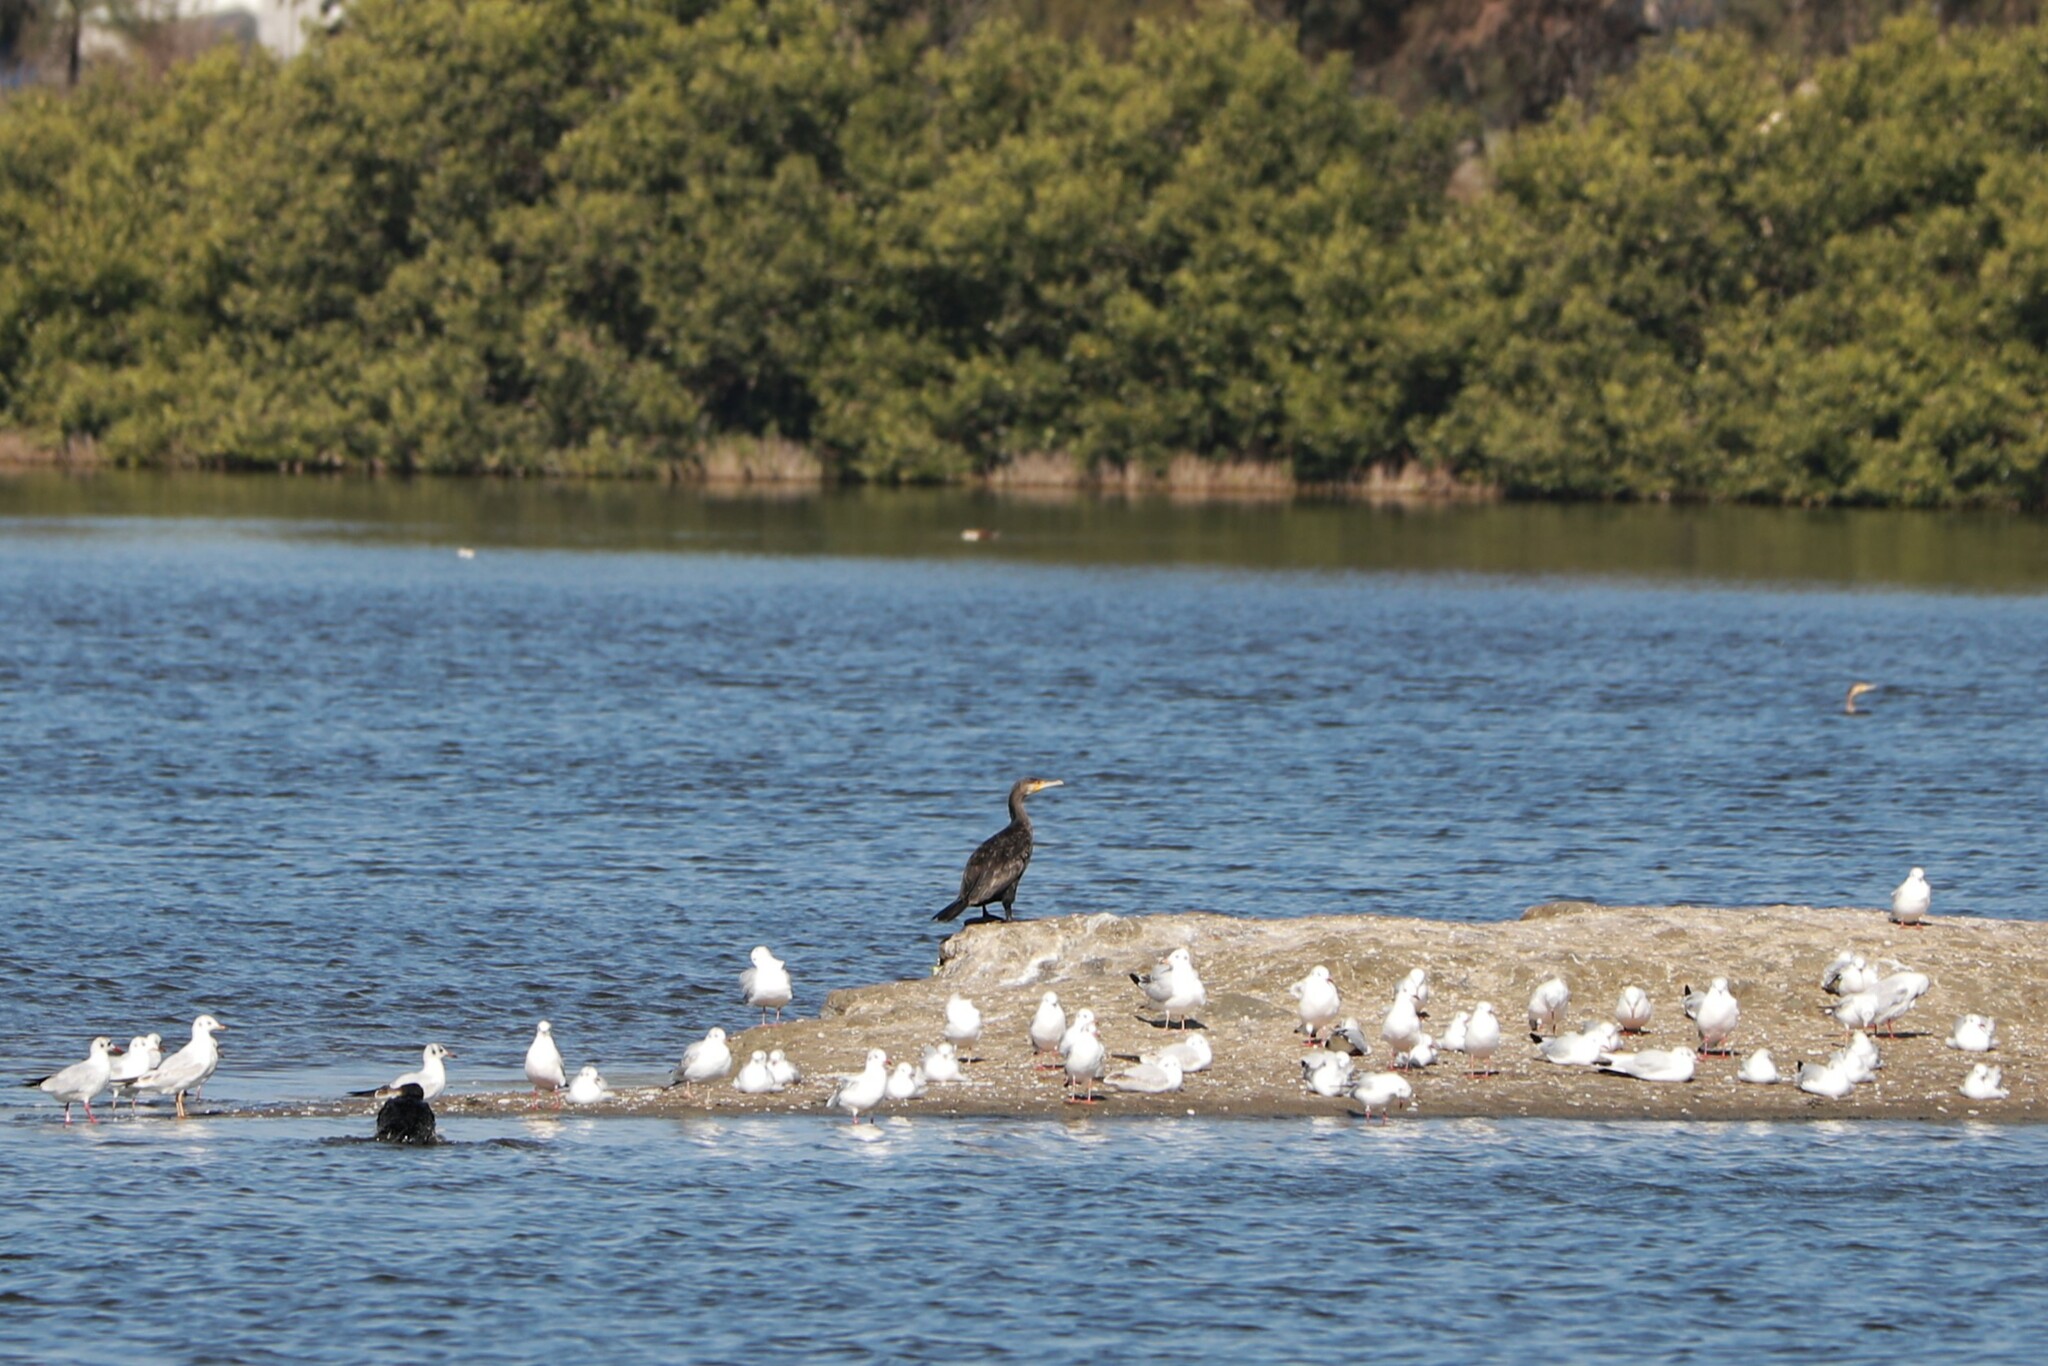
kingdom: Animalia
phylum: Chordata
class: Aves
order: Suliformes
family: Phalacrocoracidae
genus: Phalacrocorax
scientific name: Phalacrocorax carbo
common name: Great cormorant
